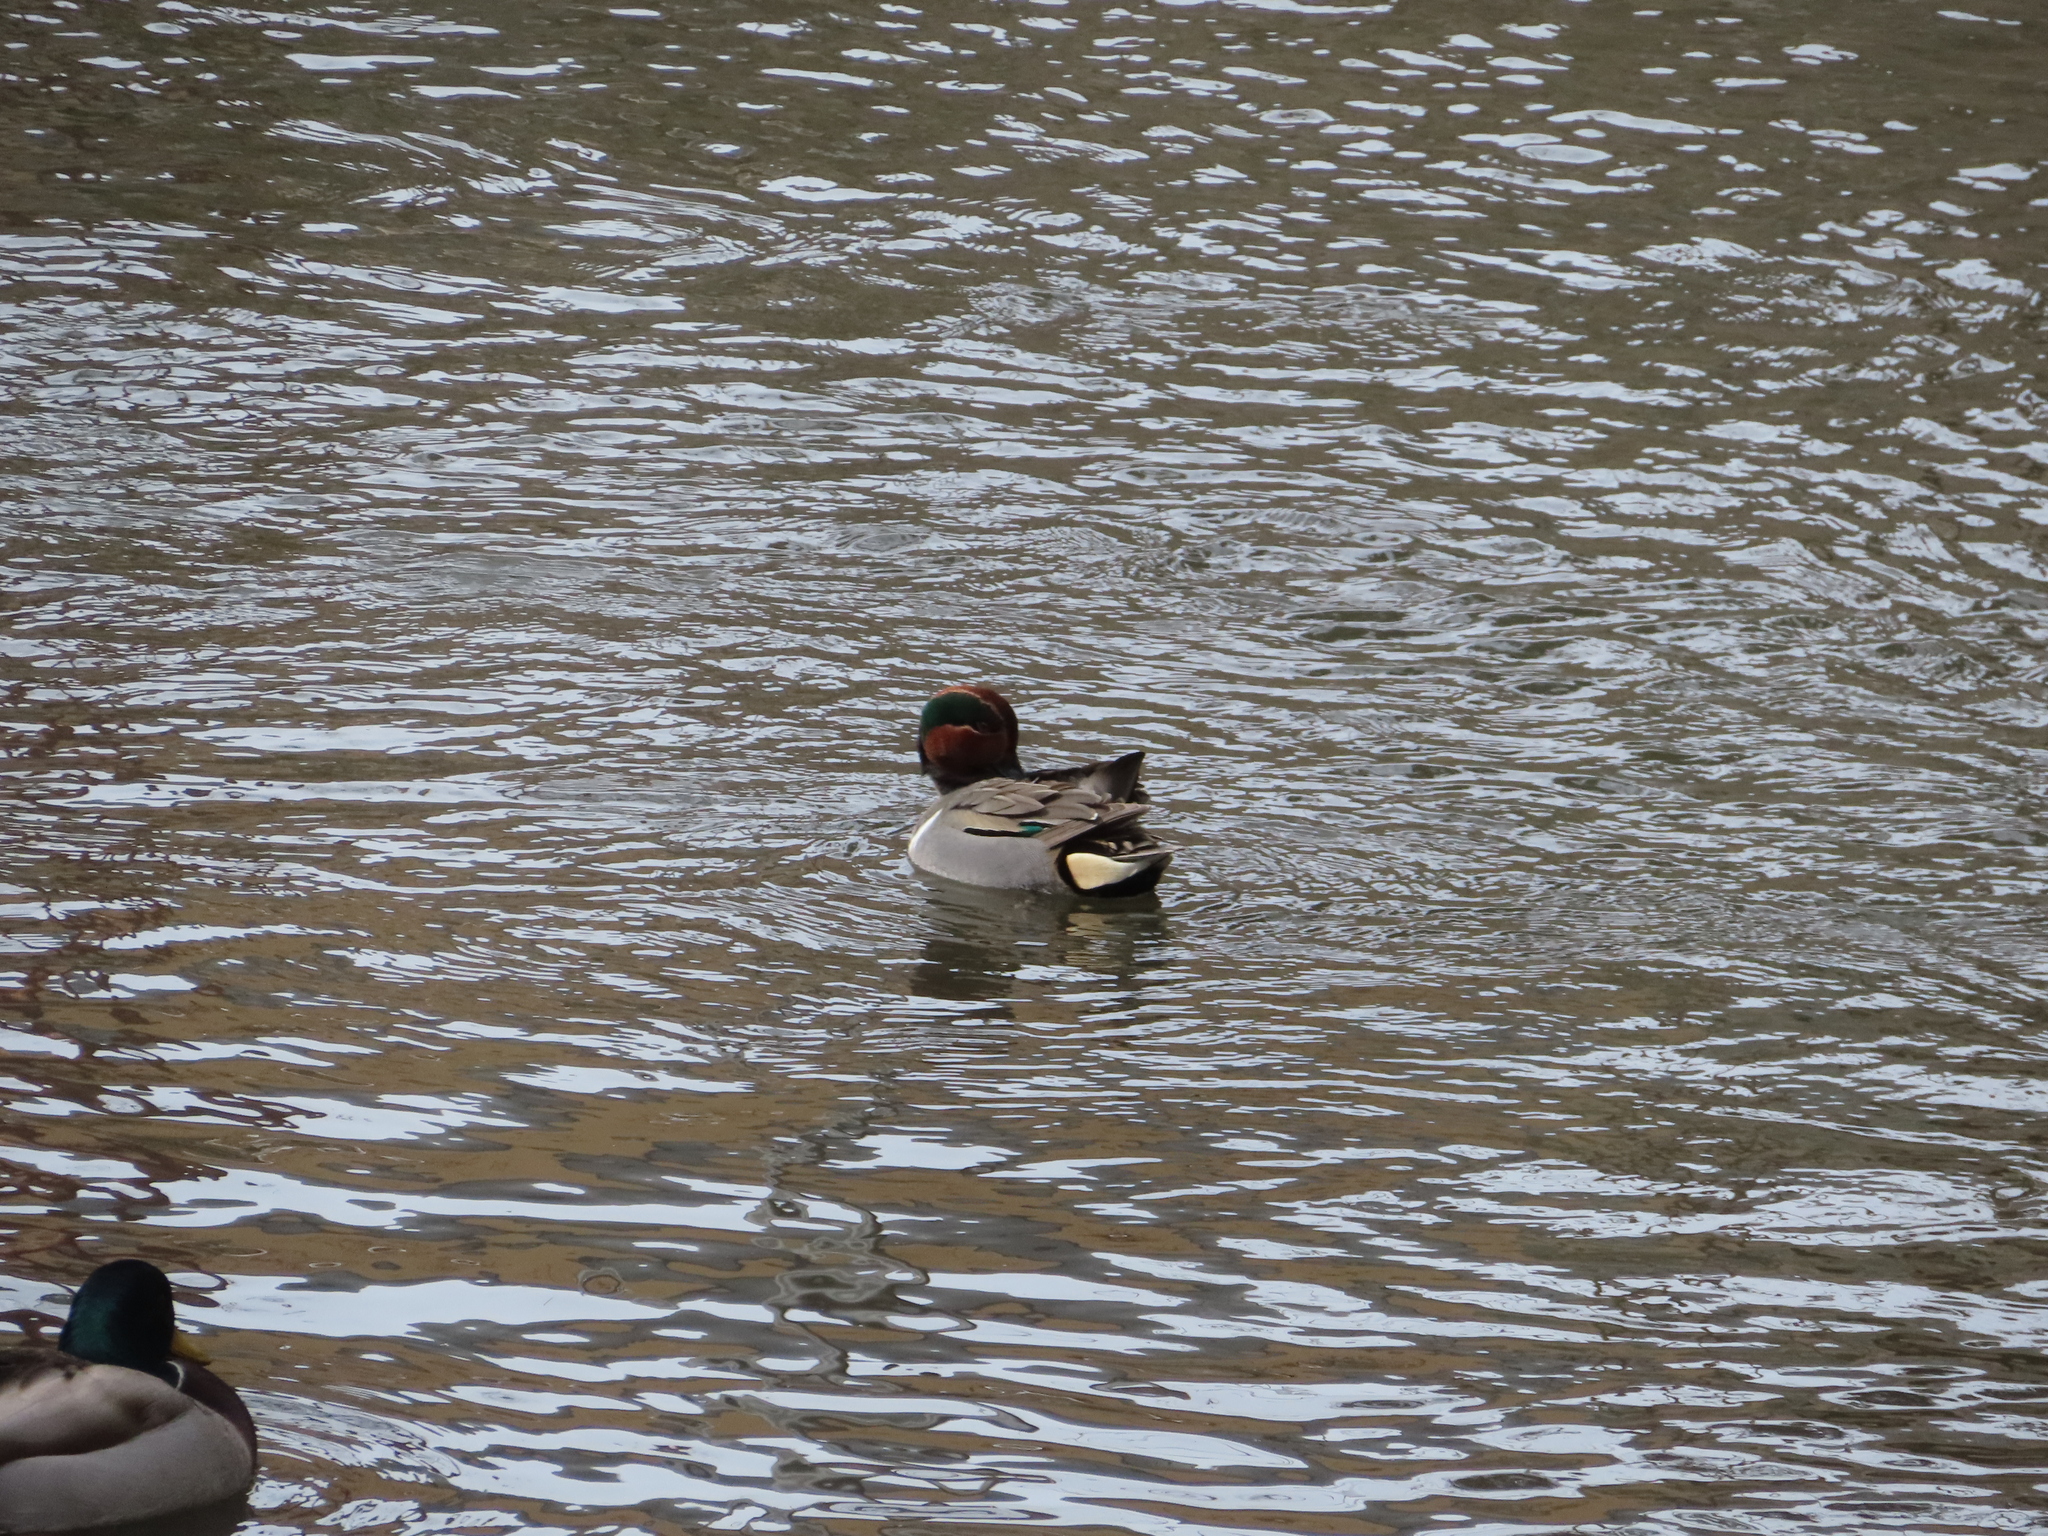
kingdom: Animalia
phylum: Chordata
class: Aves
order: Anseriformes
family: Anatidae
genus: Anas
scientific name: Anas carolinensis
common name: Green-winged teal
